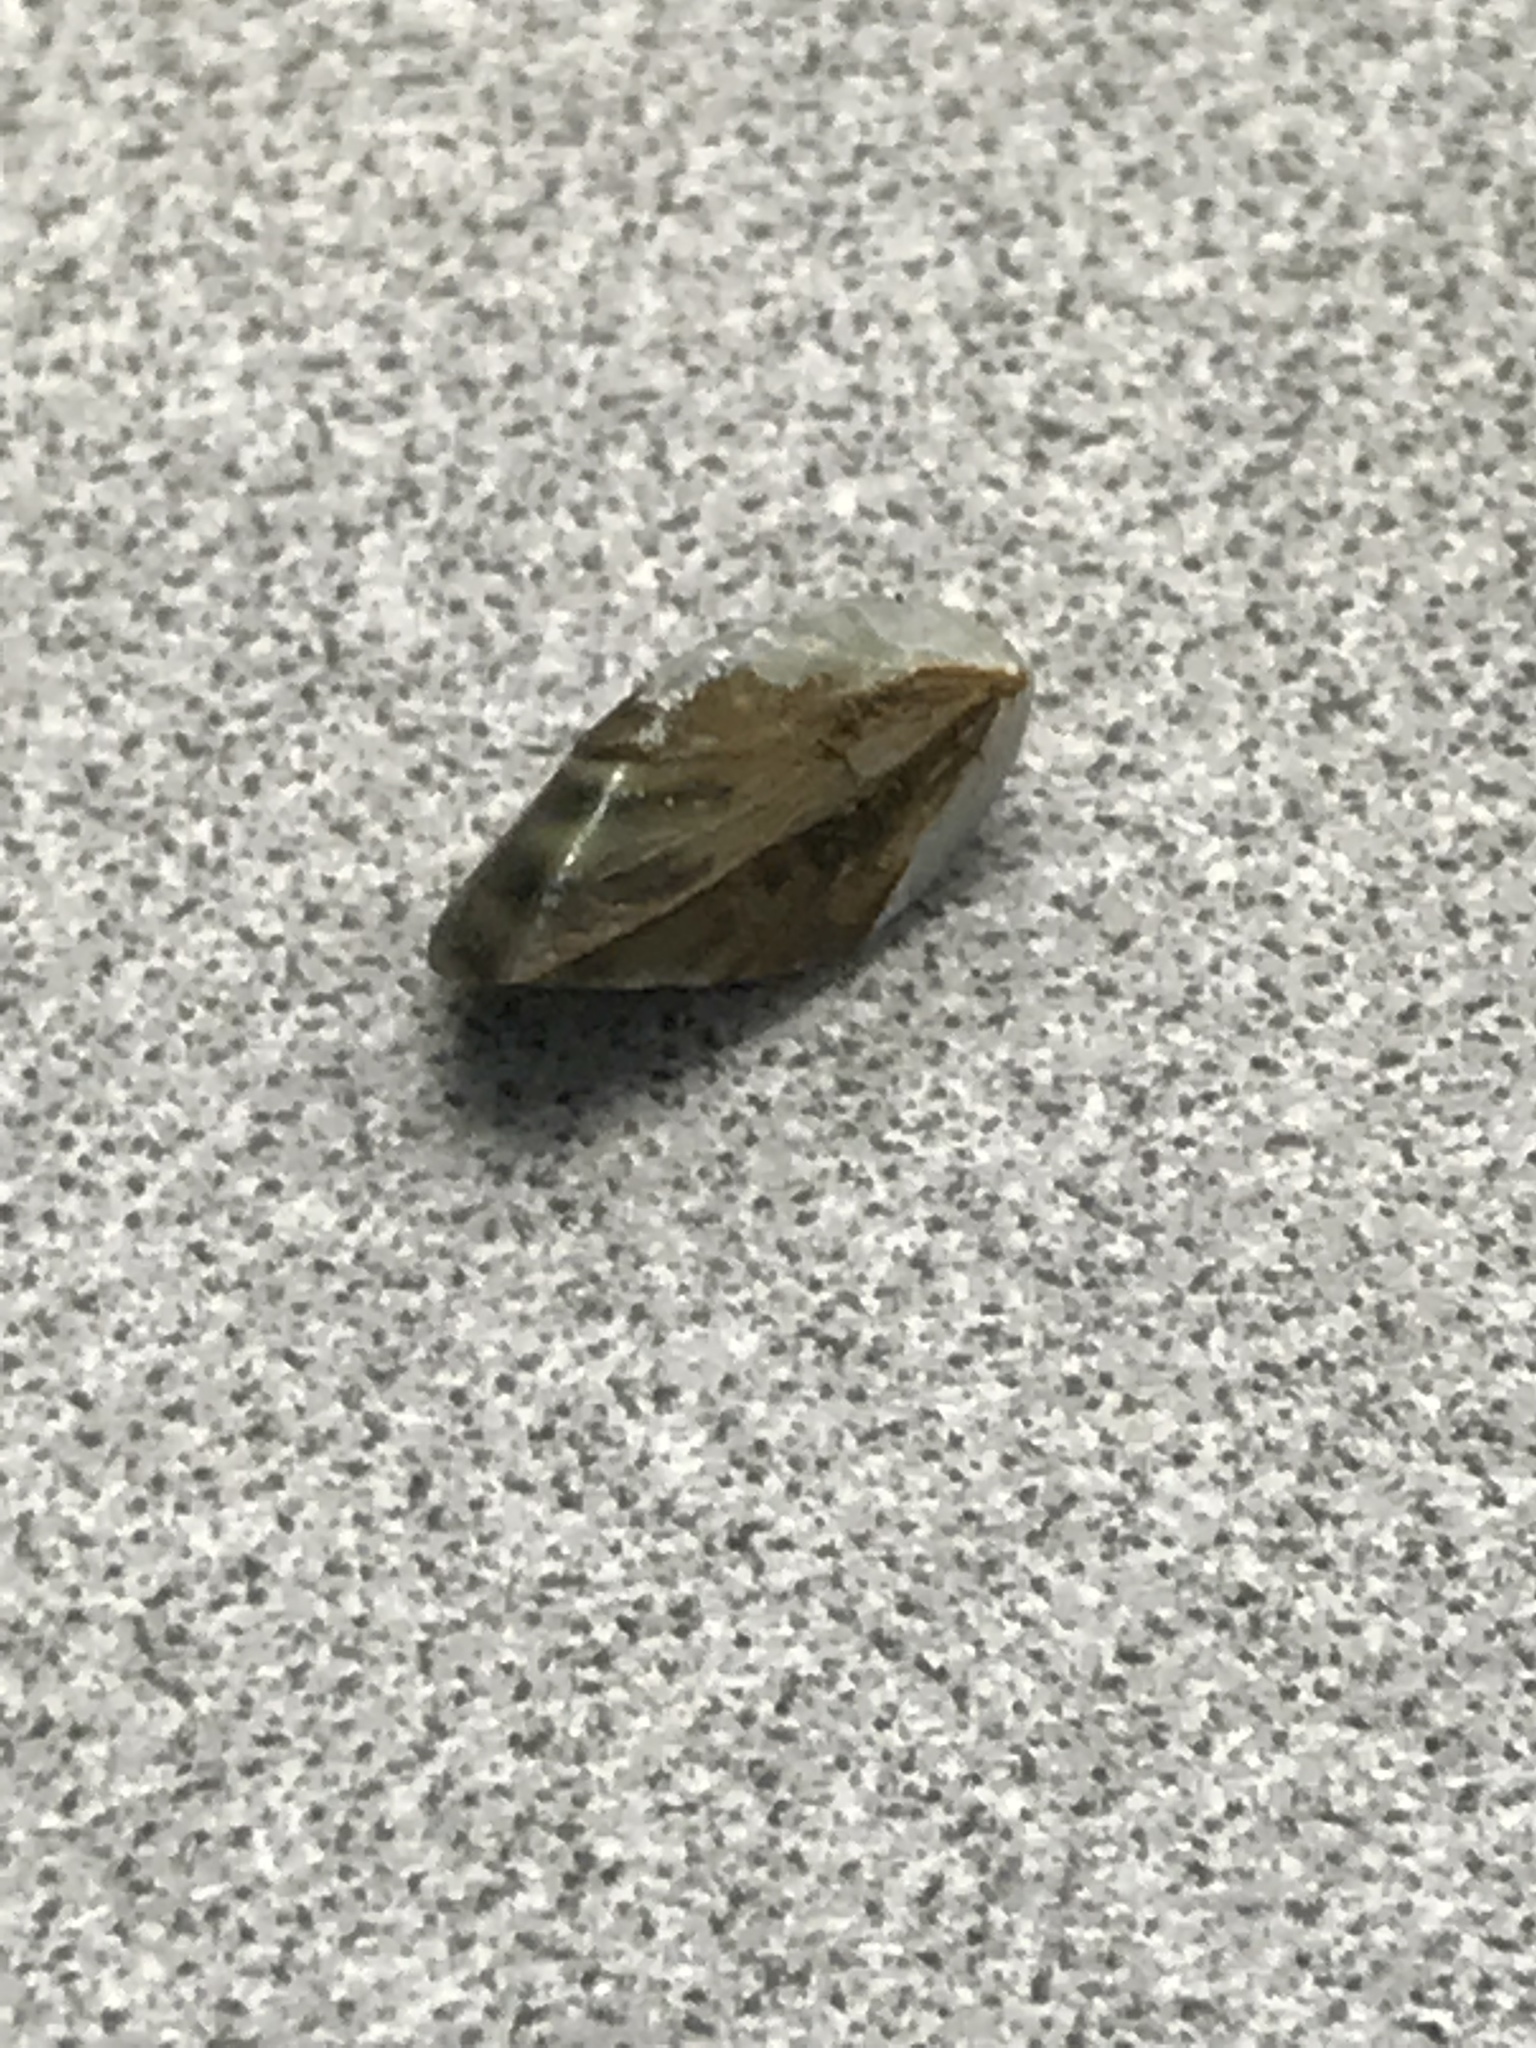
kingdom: Animalia
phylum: Mollusca
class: Bivalvia
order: Myida
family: Dreissenidae
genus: Dreissena
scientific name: Dreissena polymorpha
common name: Zebra mussel
